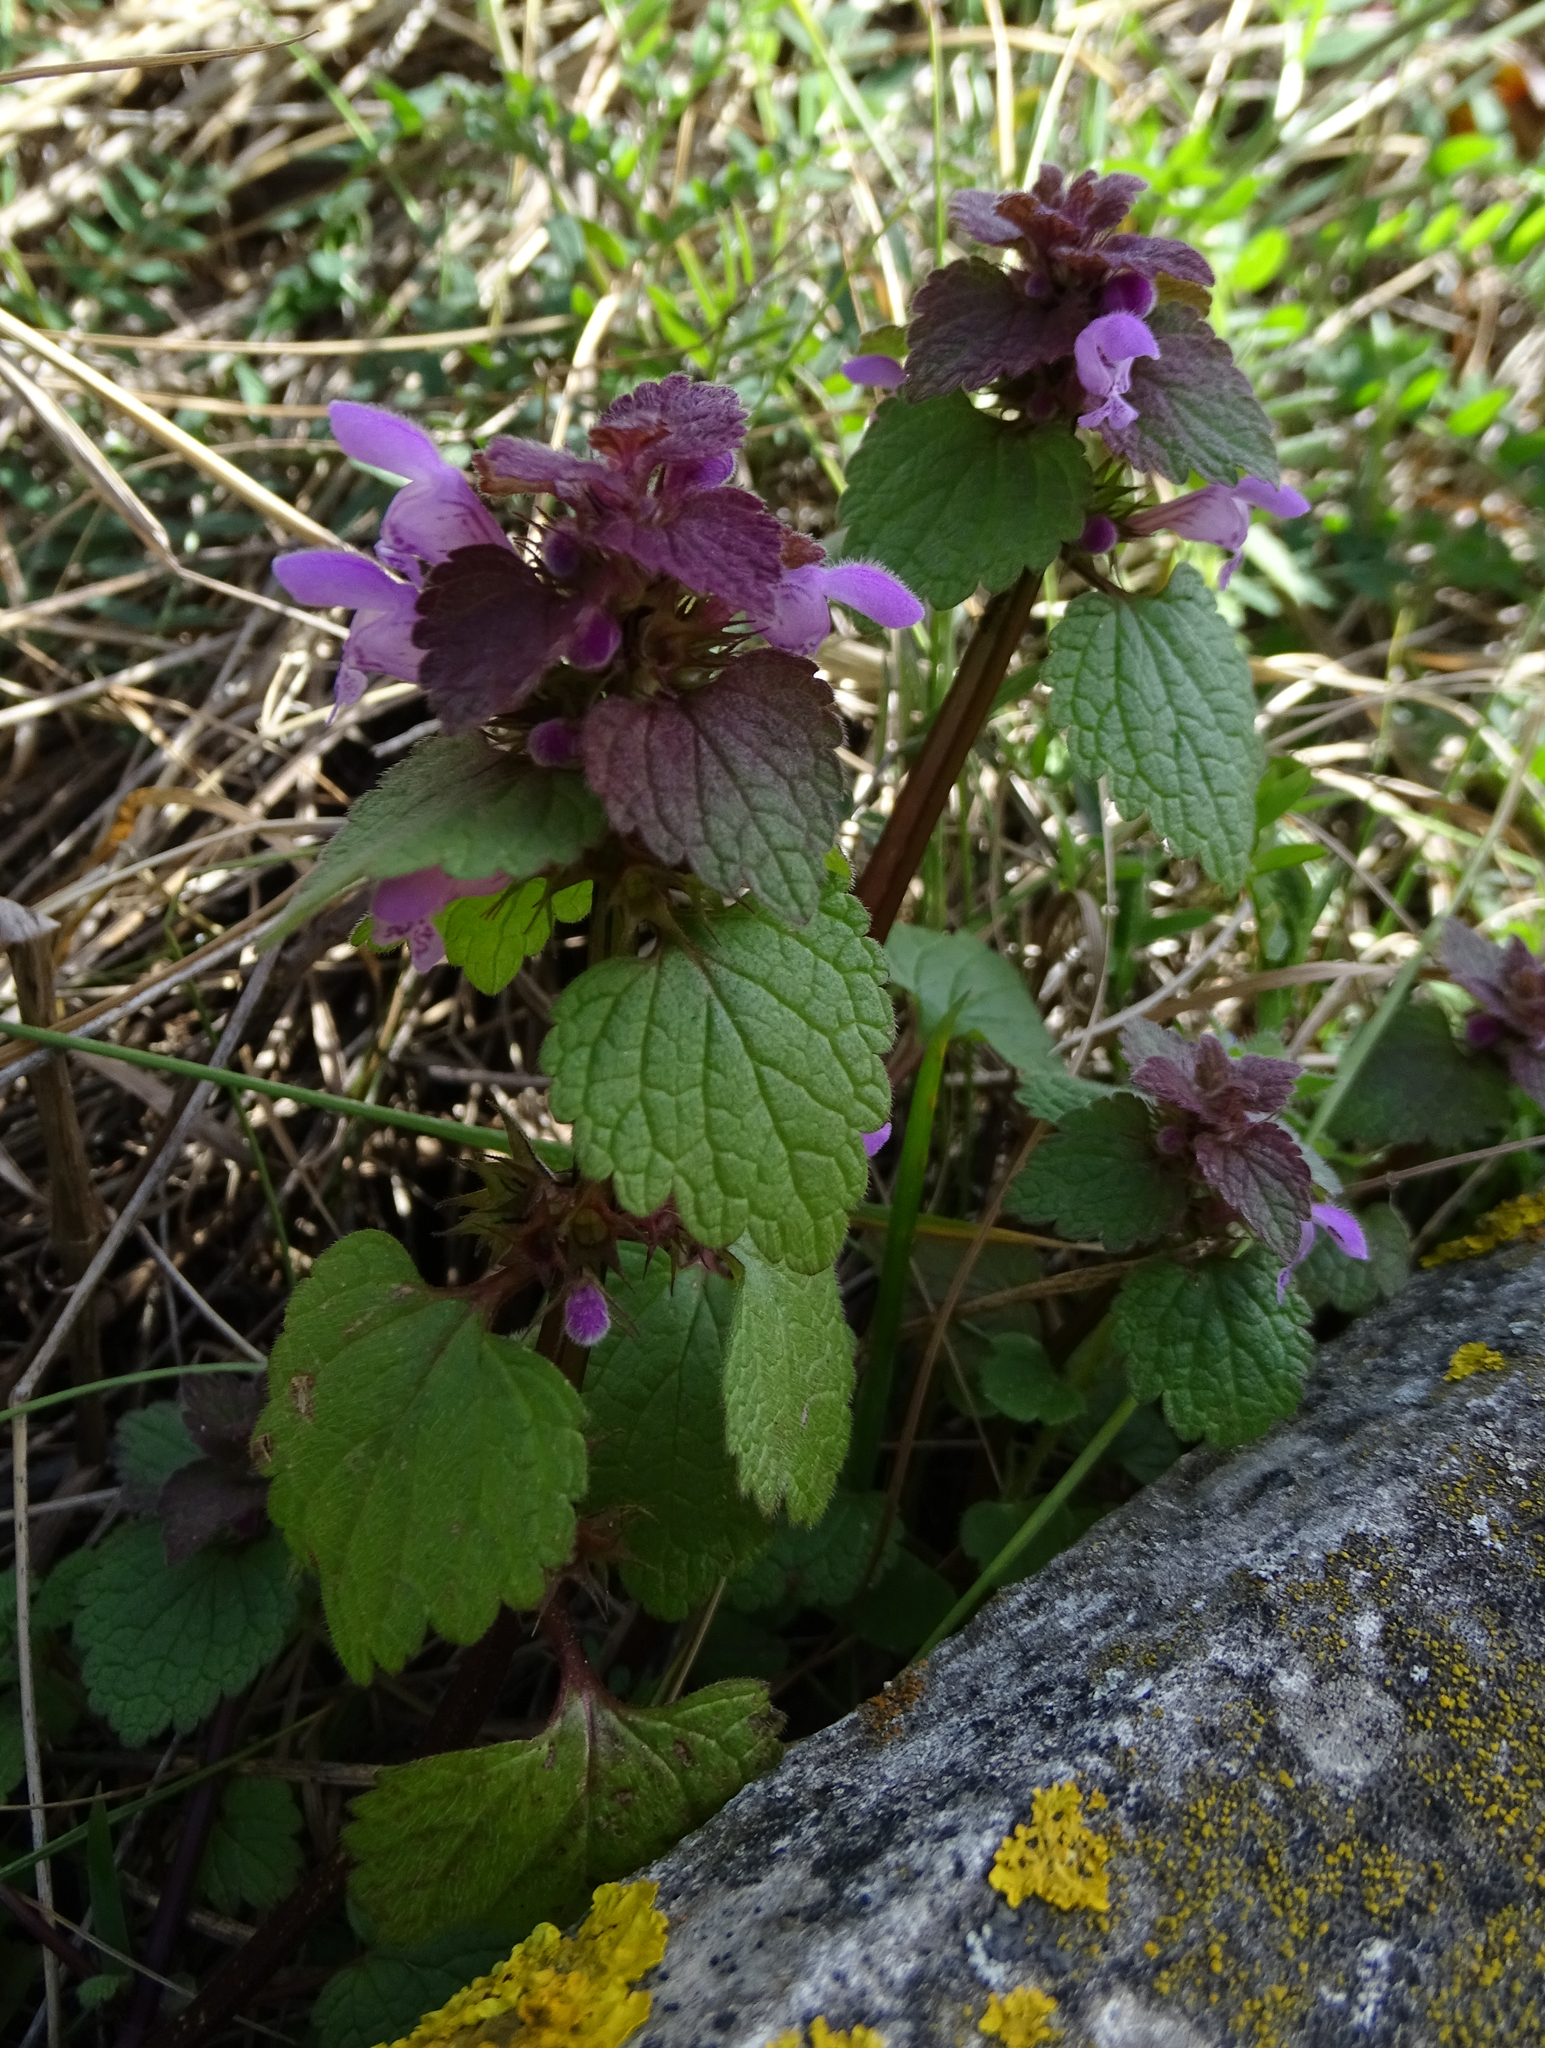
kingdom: Plantae
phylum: Tracheophyta
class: Magnoliopsida
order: Lamiales
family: Lamiaceae
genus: Lamium
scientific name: Lamium purpureum
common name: Red dead-nettle
